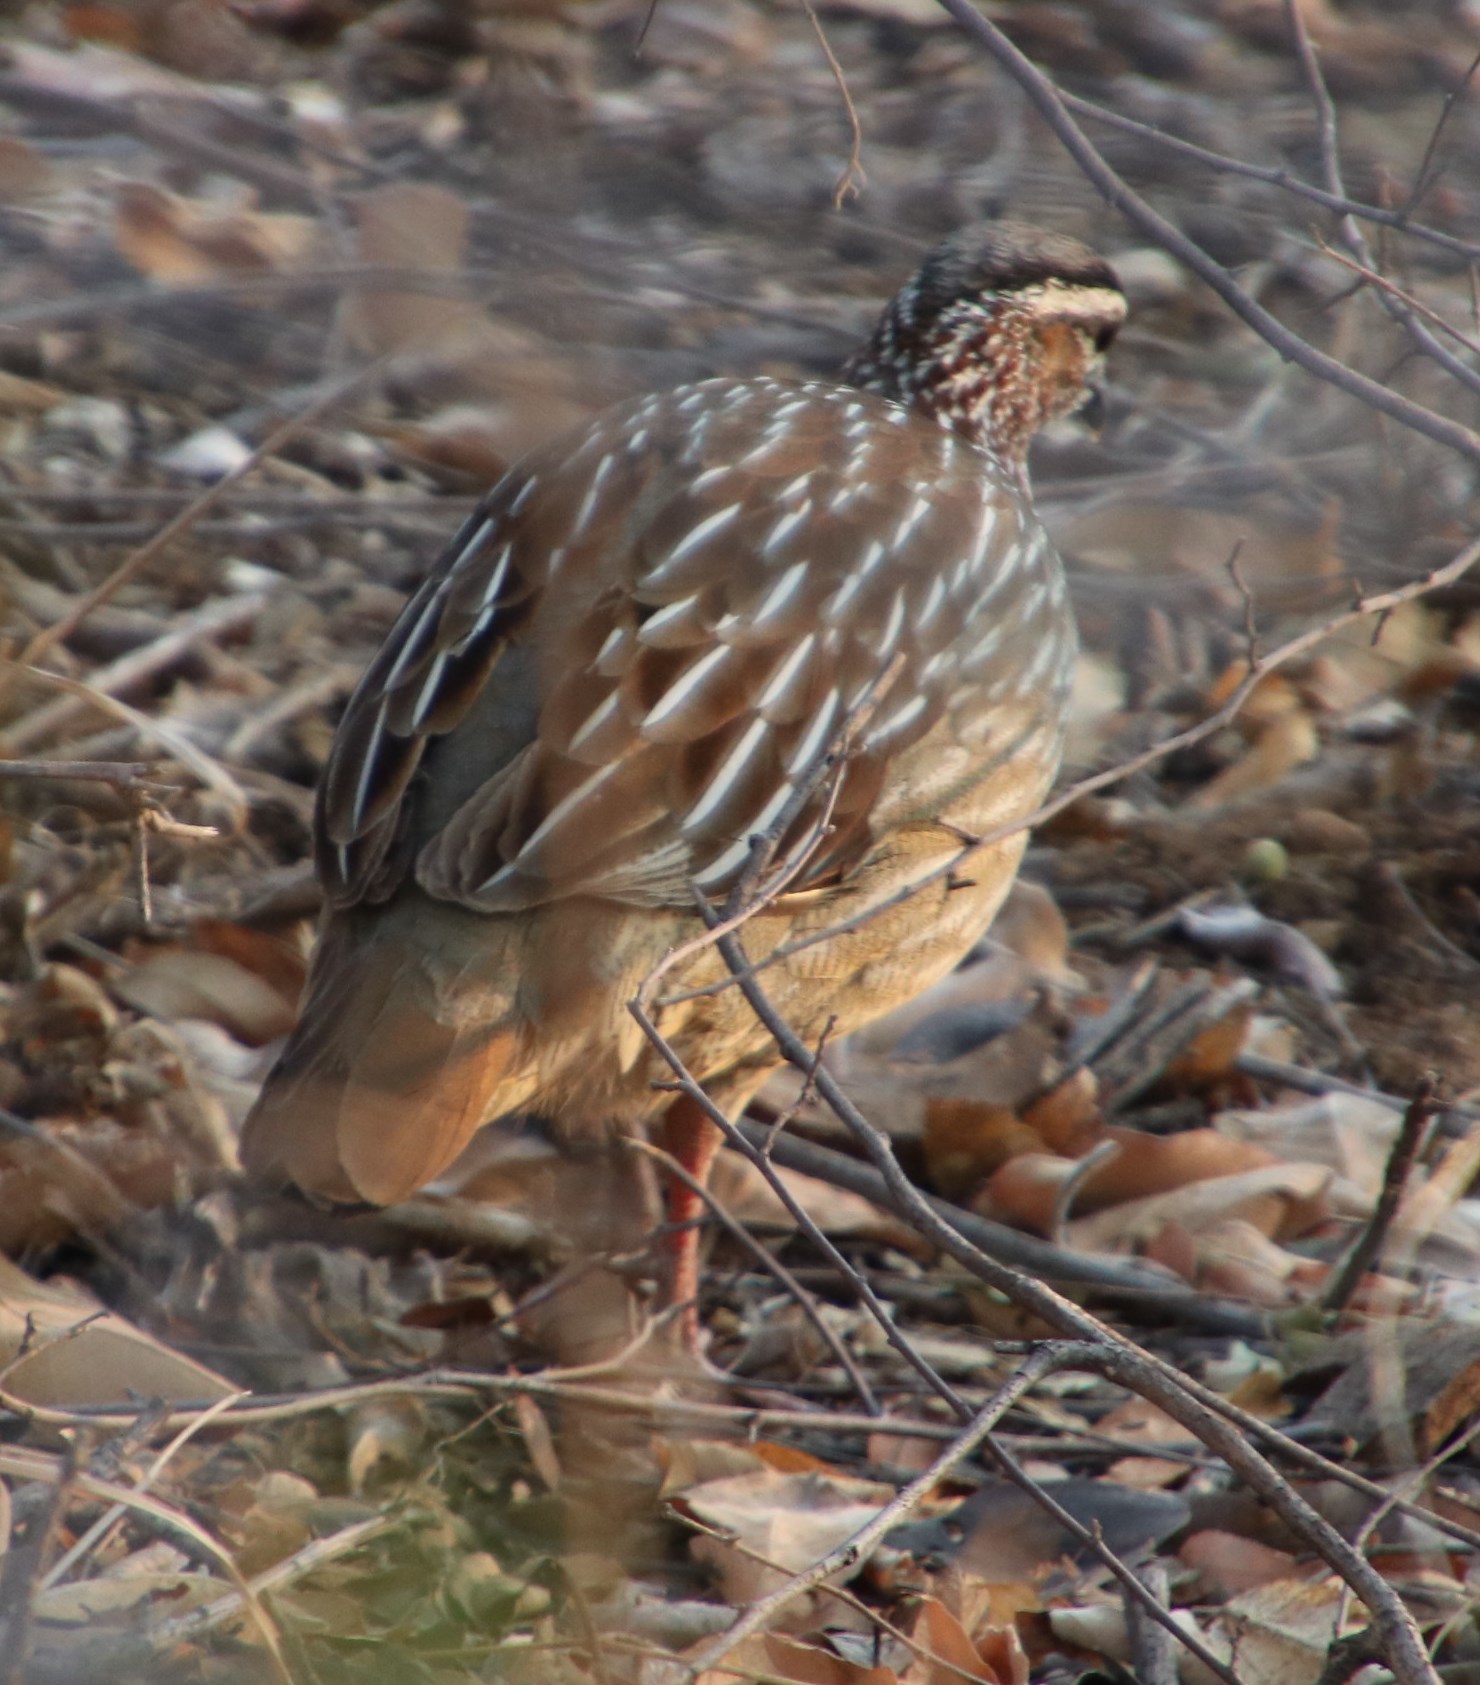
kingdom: Animalia
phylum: Chordata
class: Aves
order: Galliformes
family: Phasianidae
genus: Ortygornis
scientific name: Ortygornis sephaena
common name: Crested francolin
